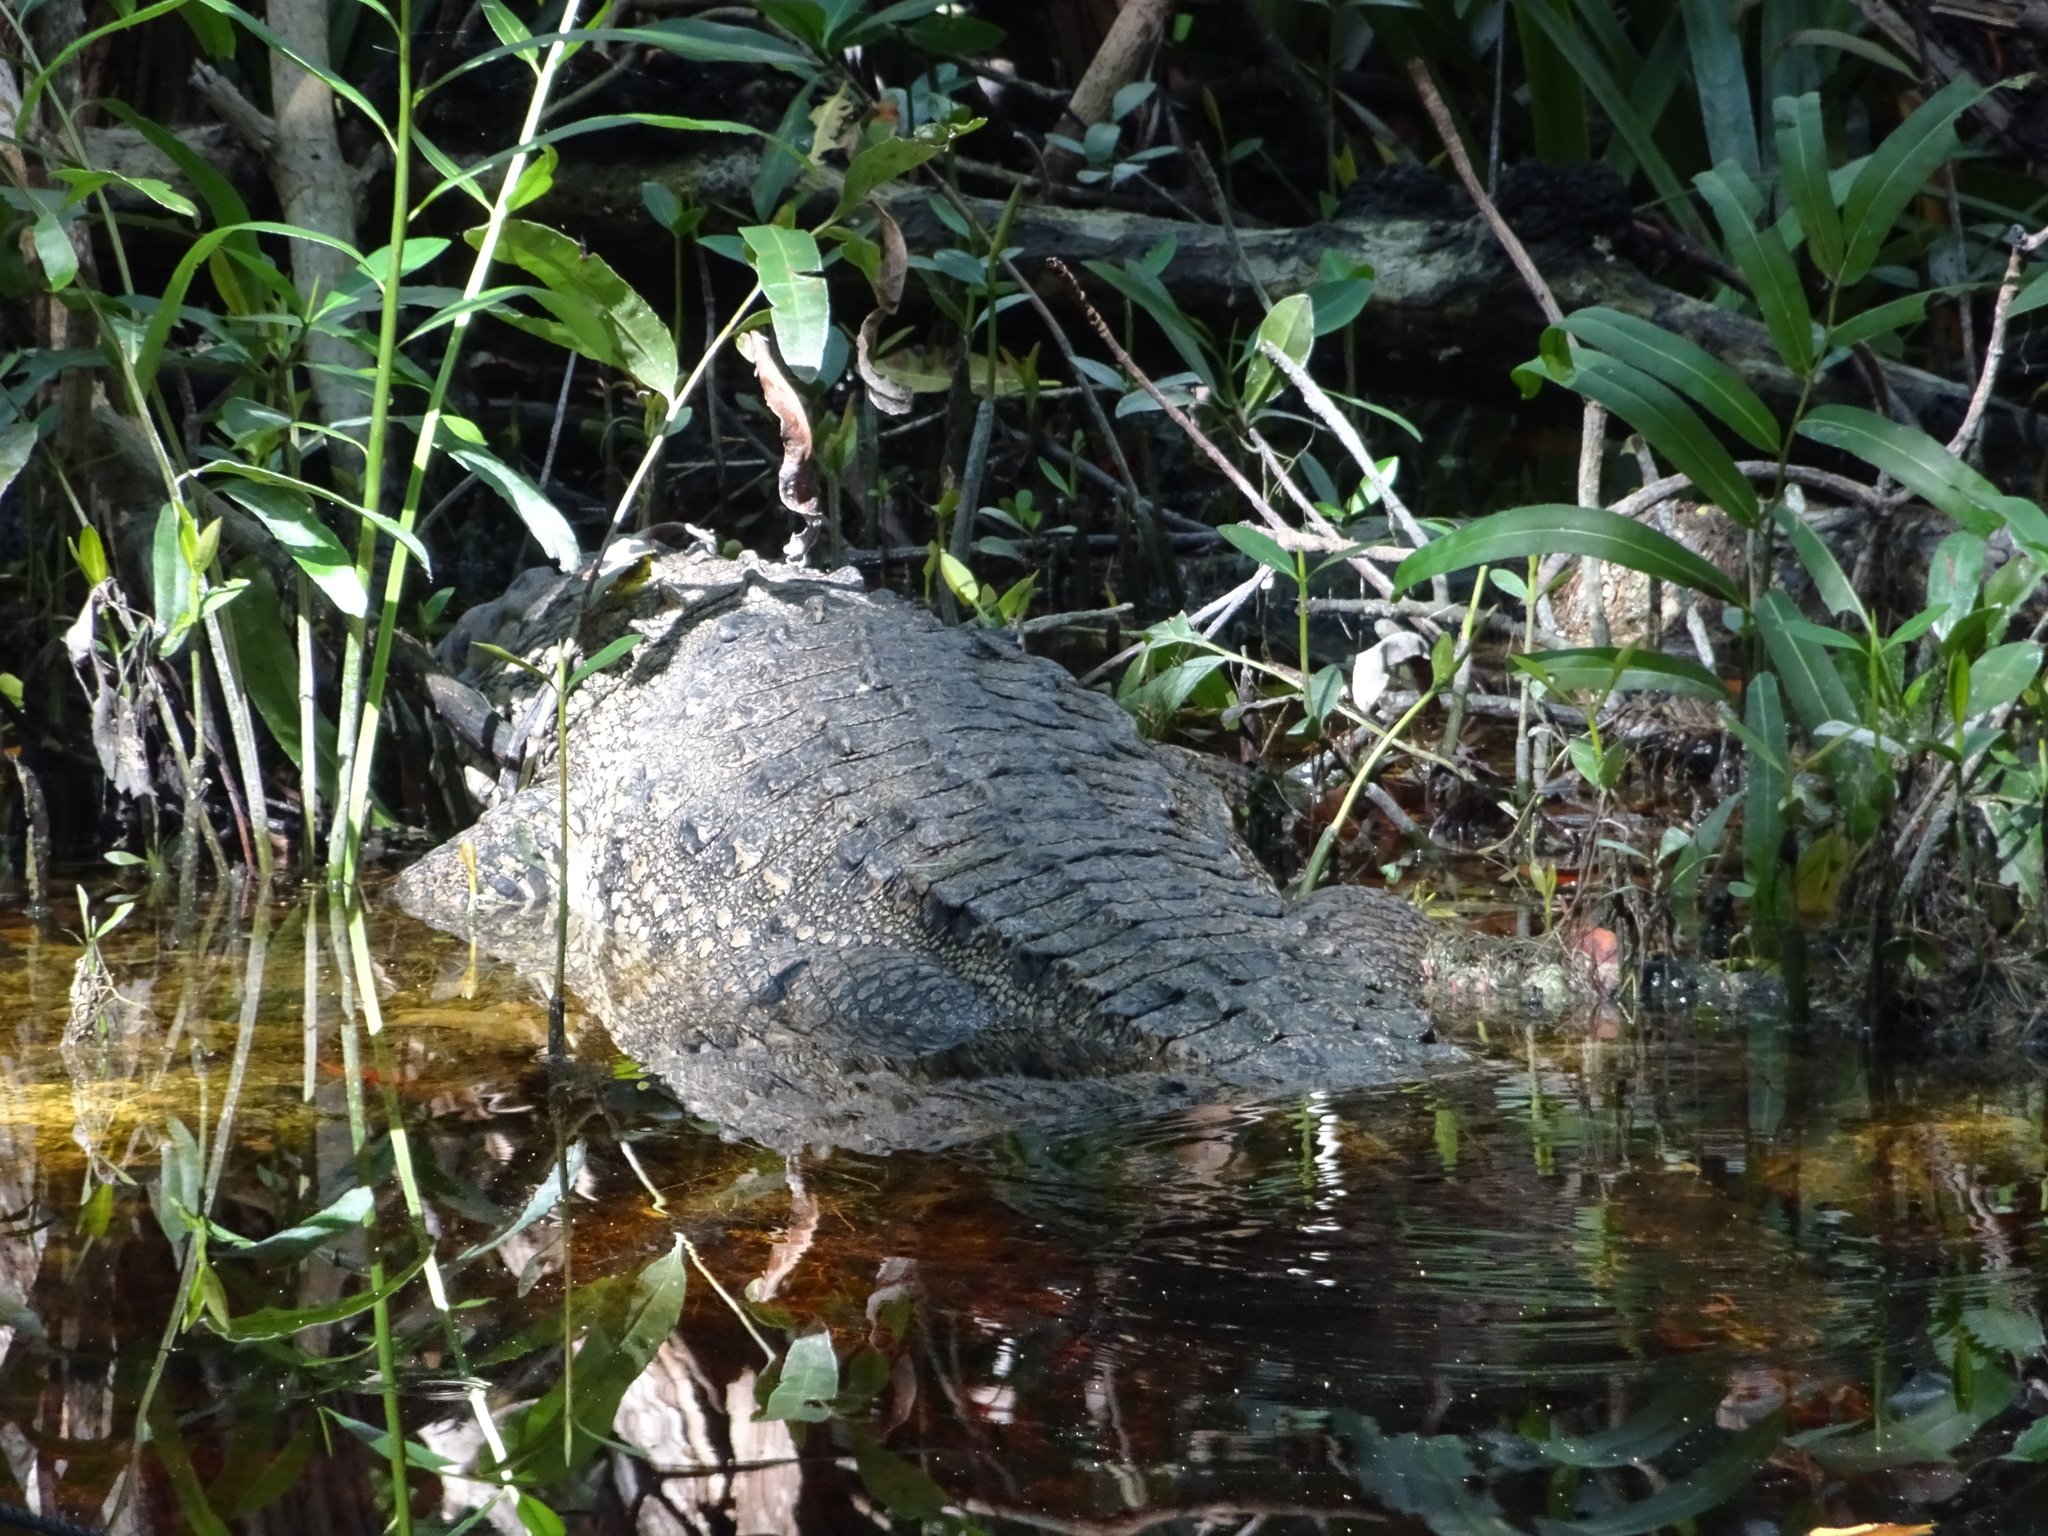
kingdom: Animalia
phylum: Chordata
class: Crocodylia
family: Crocodylidae
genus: Crocodylus
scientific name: Crocodylus moreletii
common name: Morelet's crocodile
